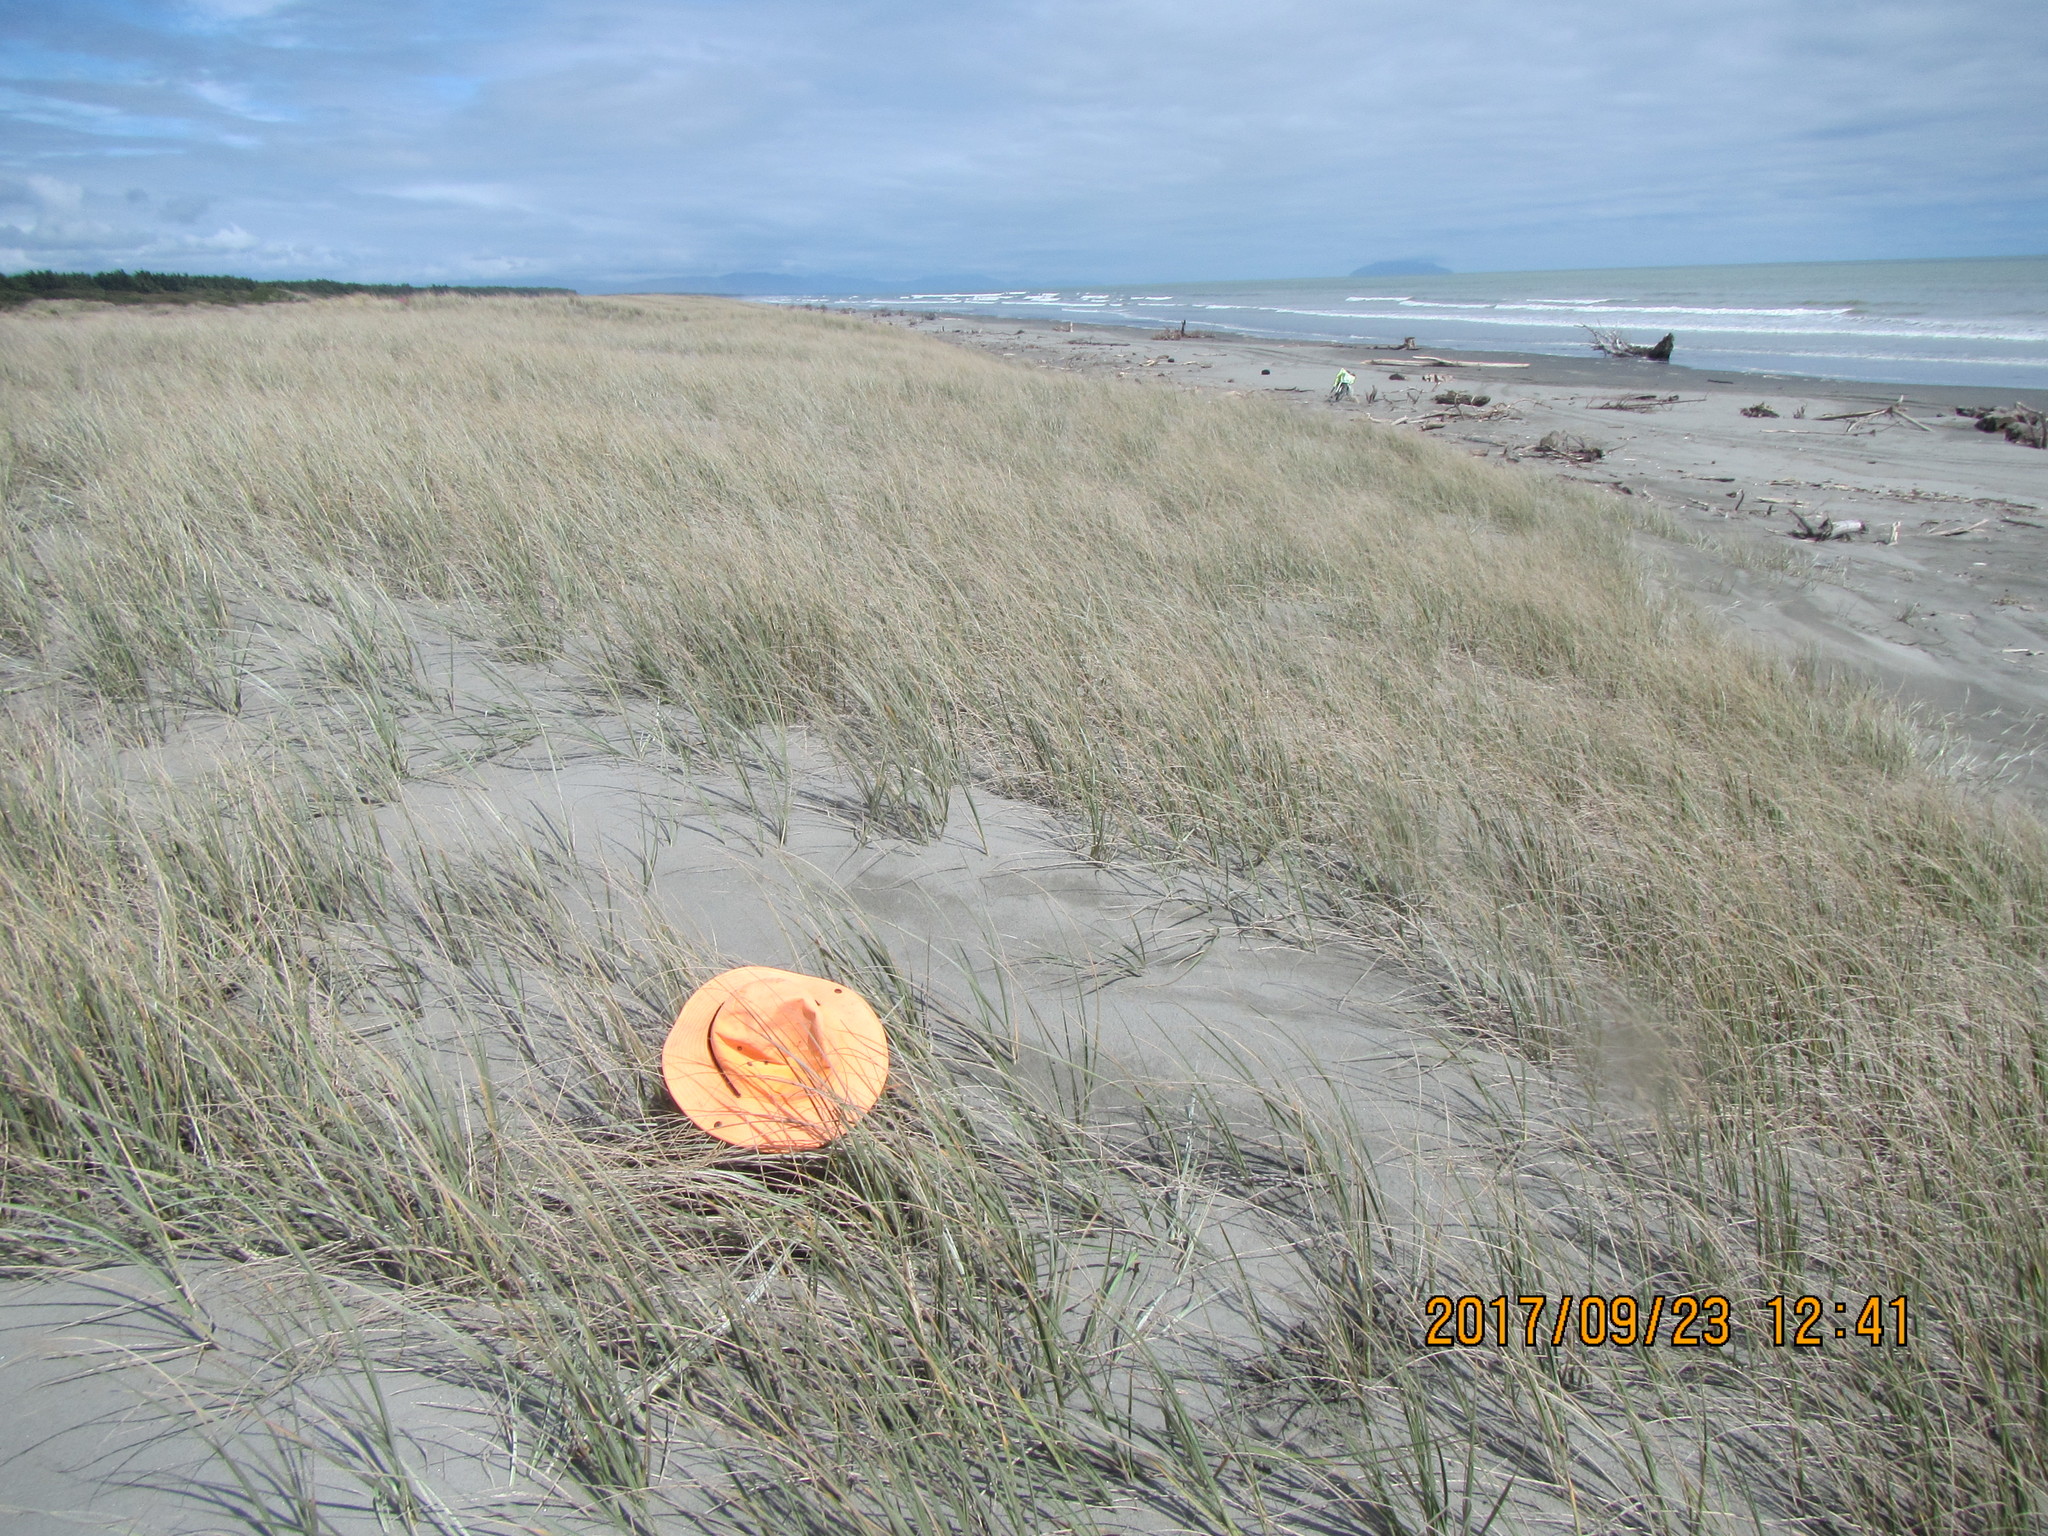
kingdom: Animalia
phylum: Arthropoda
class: Arachnida
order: Araneae
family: Salticidae
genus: Maratus
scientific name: Maratus griseus
